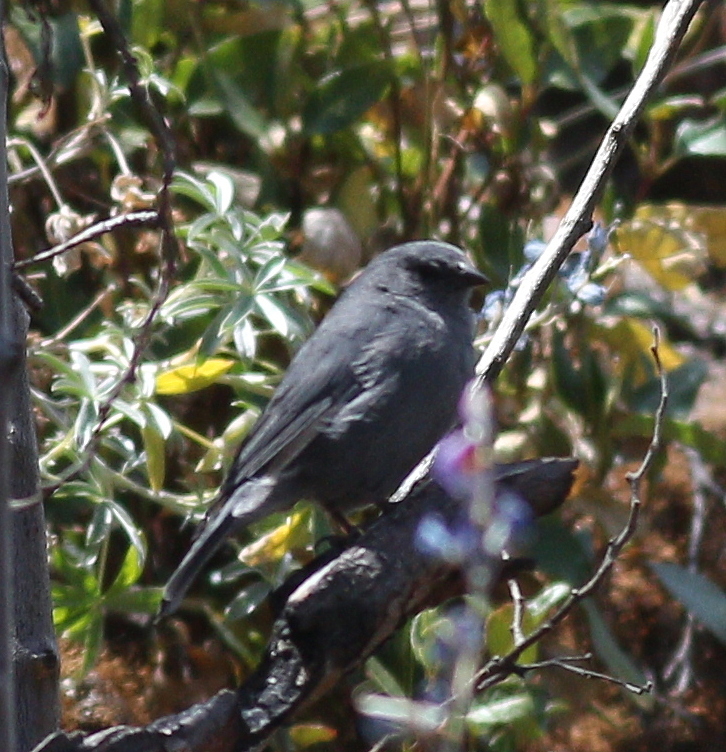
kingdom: Animalia
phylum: Chordata
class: Aves
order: Passeriformes
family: Thraupidae
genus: Geospizopsis
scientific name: Geospizopsis unicolor
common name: Plumbeous sierra-finch
